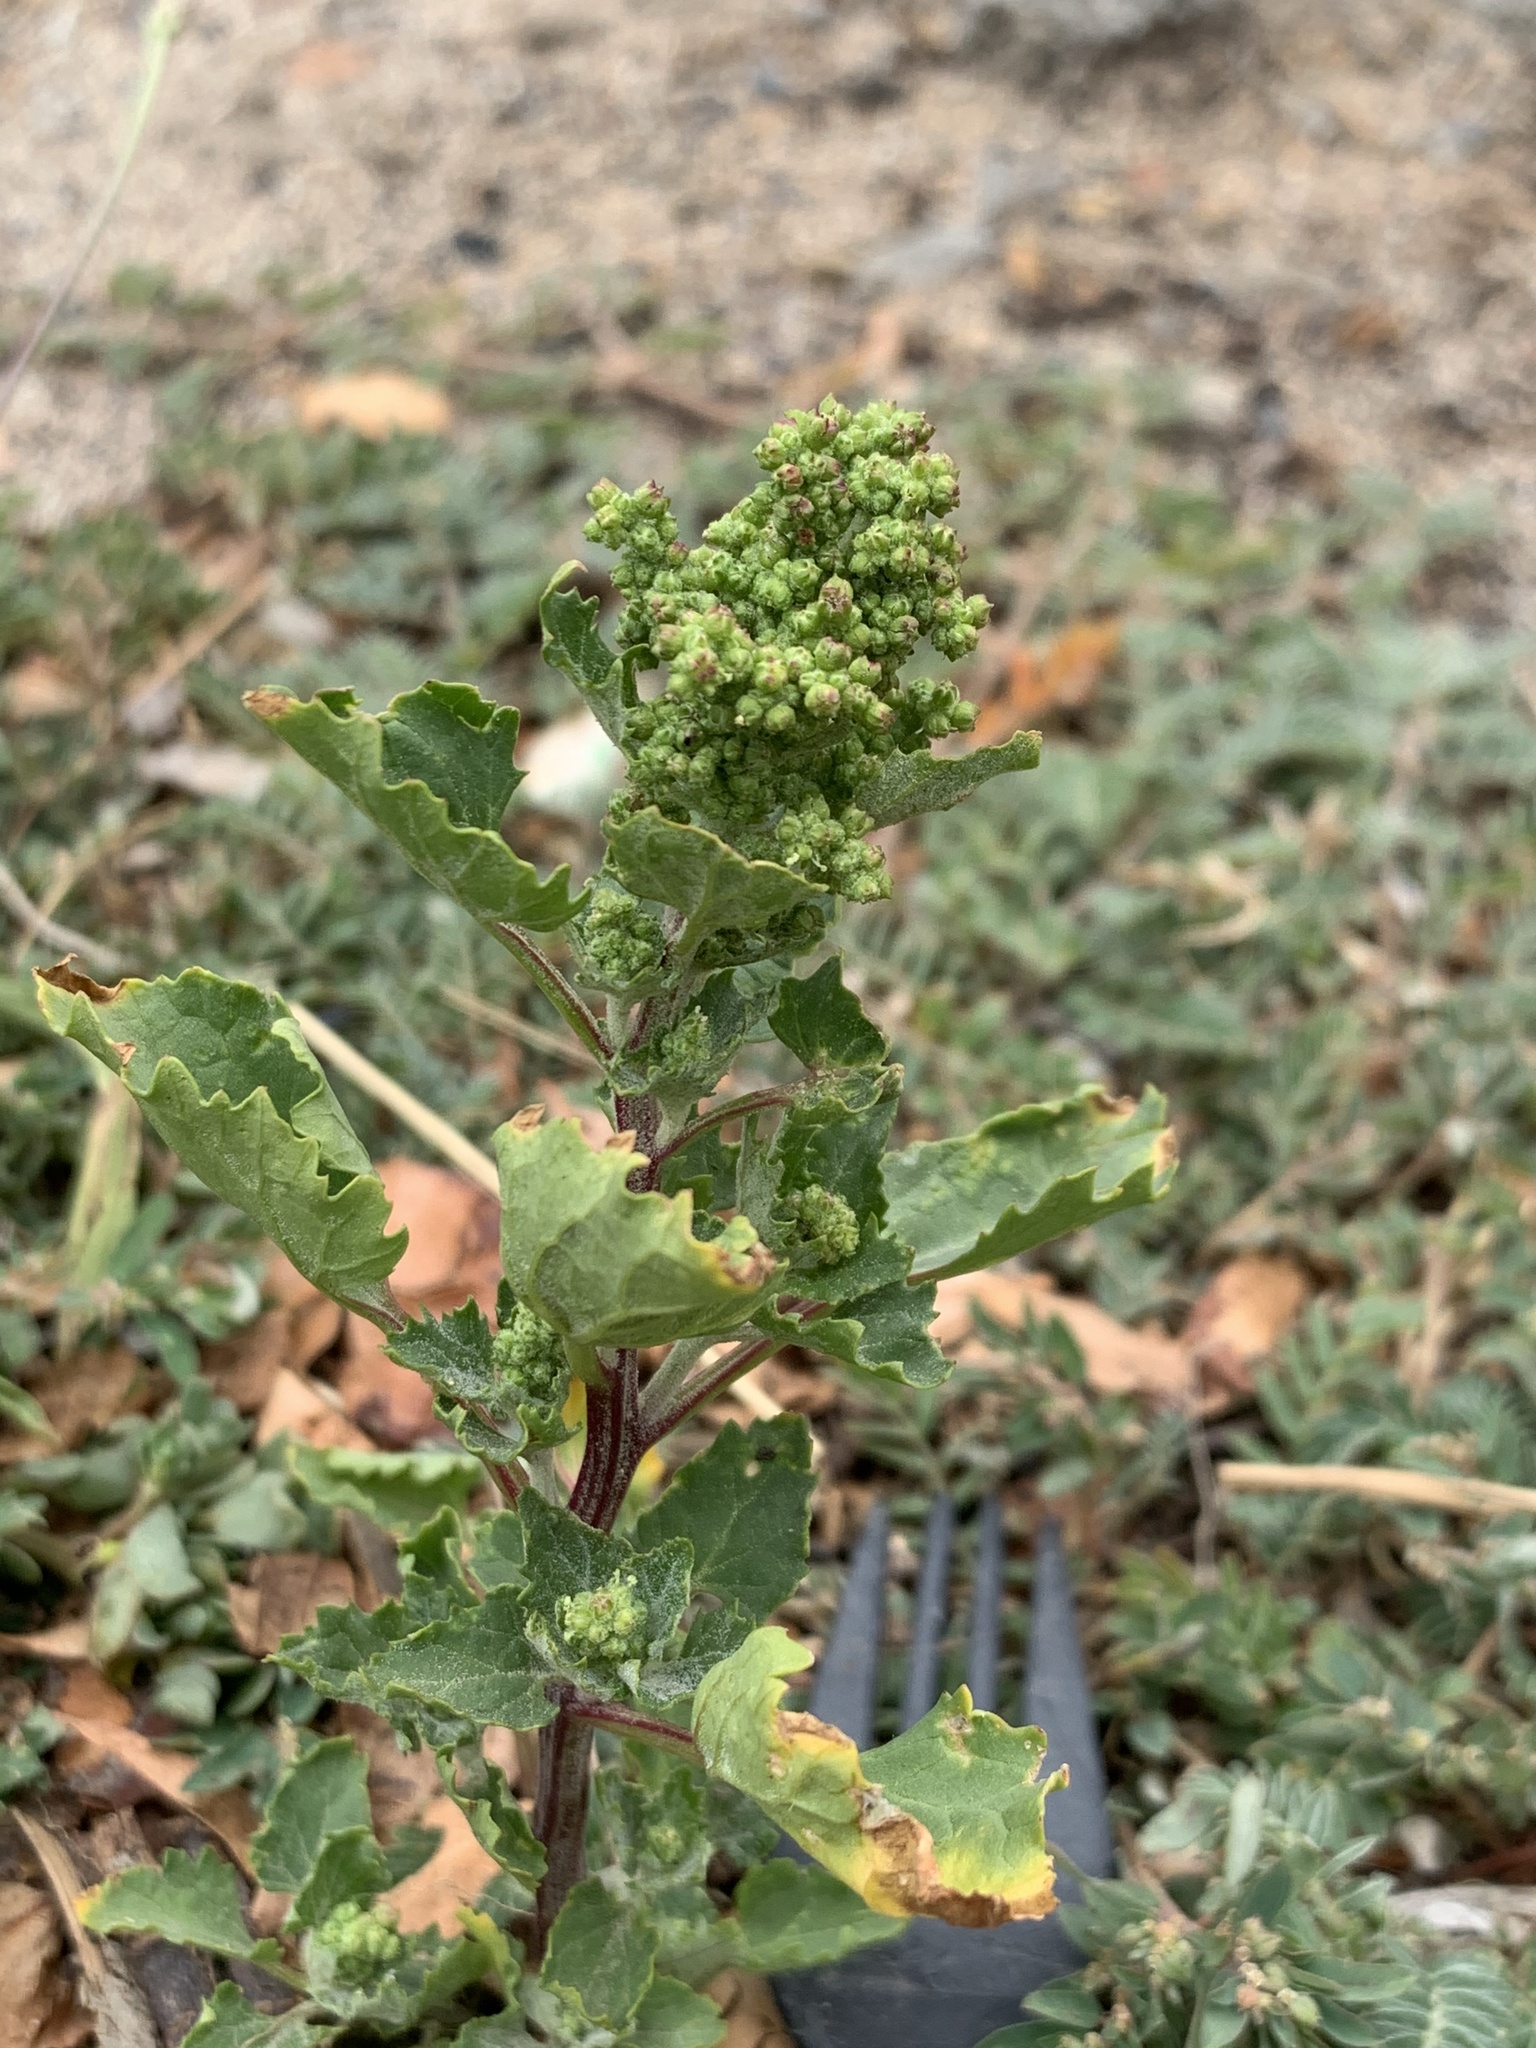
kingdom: Plantae
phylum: Tracheophyta
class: Magnoliopsida
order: Caryophyllales
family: Amaranthaceae
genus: Chenopodiastrum
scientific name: Chenopodiastrum murale
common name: Sowbane
